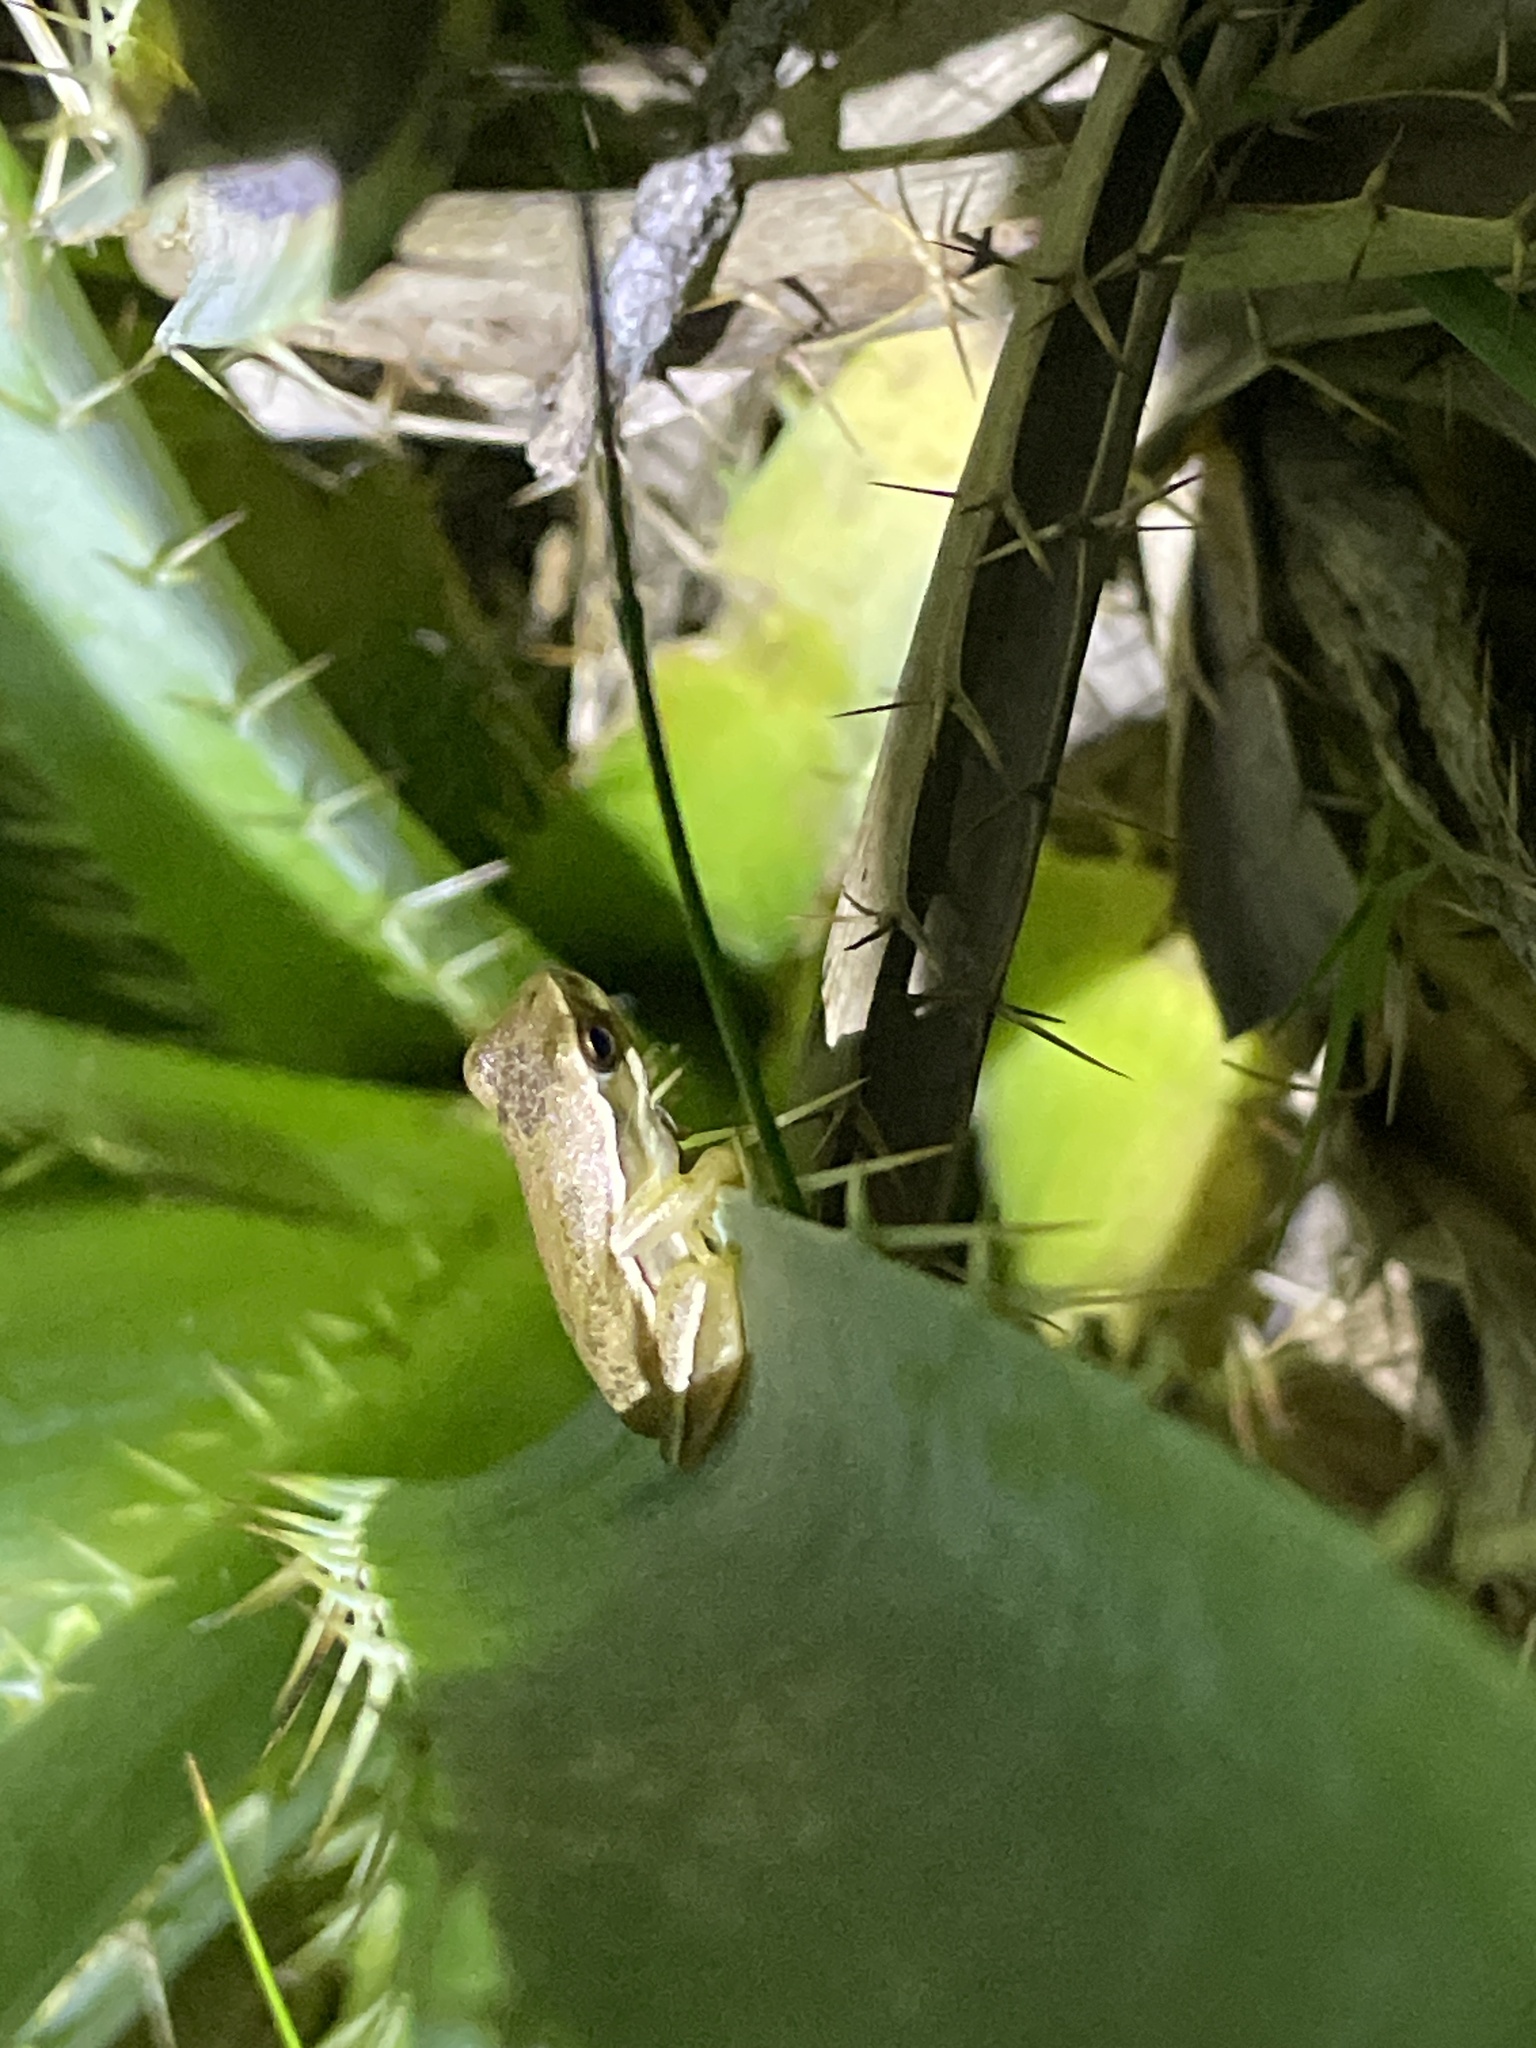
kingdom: Animalia
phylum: Chordata
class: Amphibia
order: Anura
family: Hylidae
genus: Boana
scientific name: Boana pulchella
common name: Montevideo treefrog
